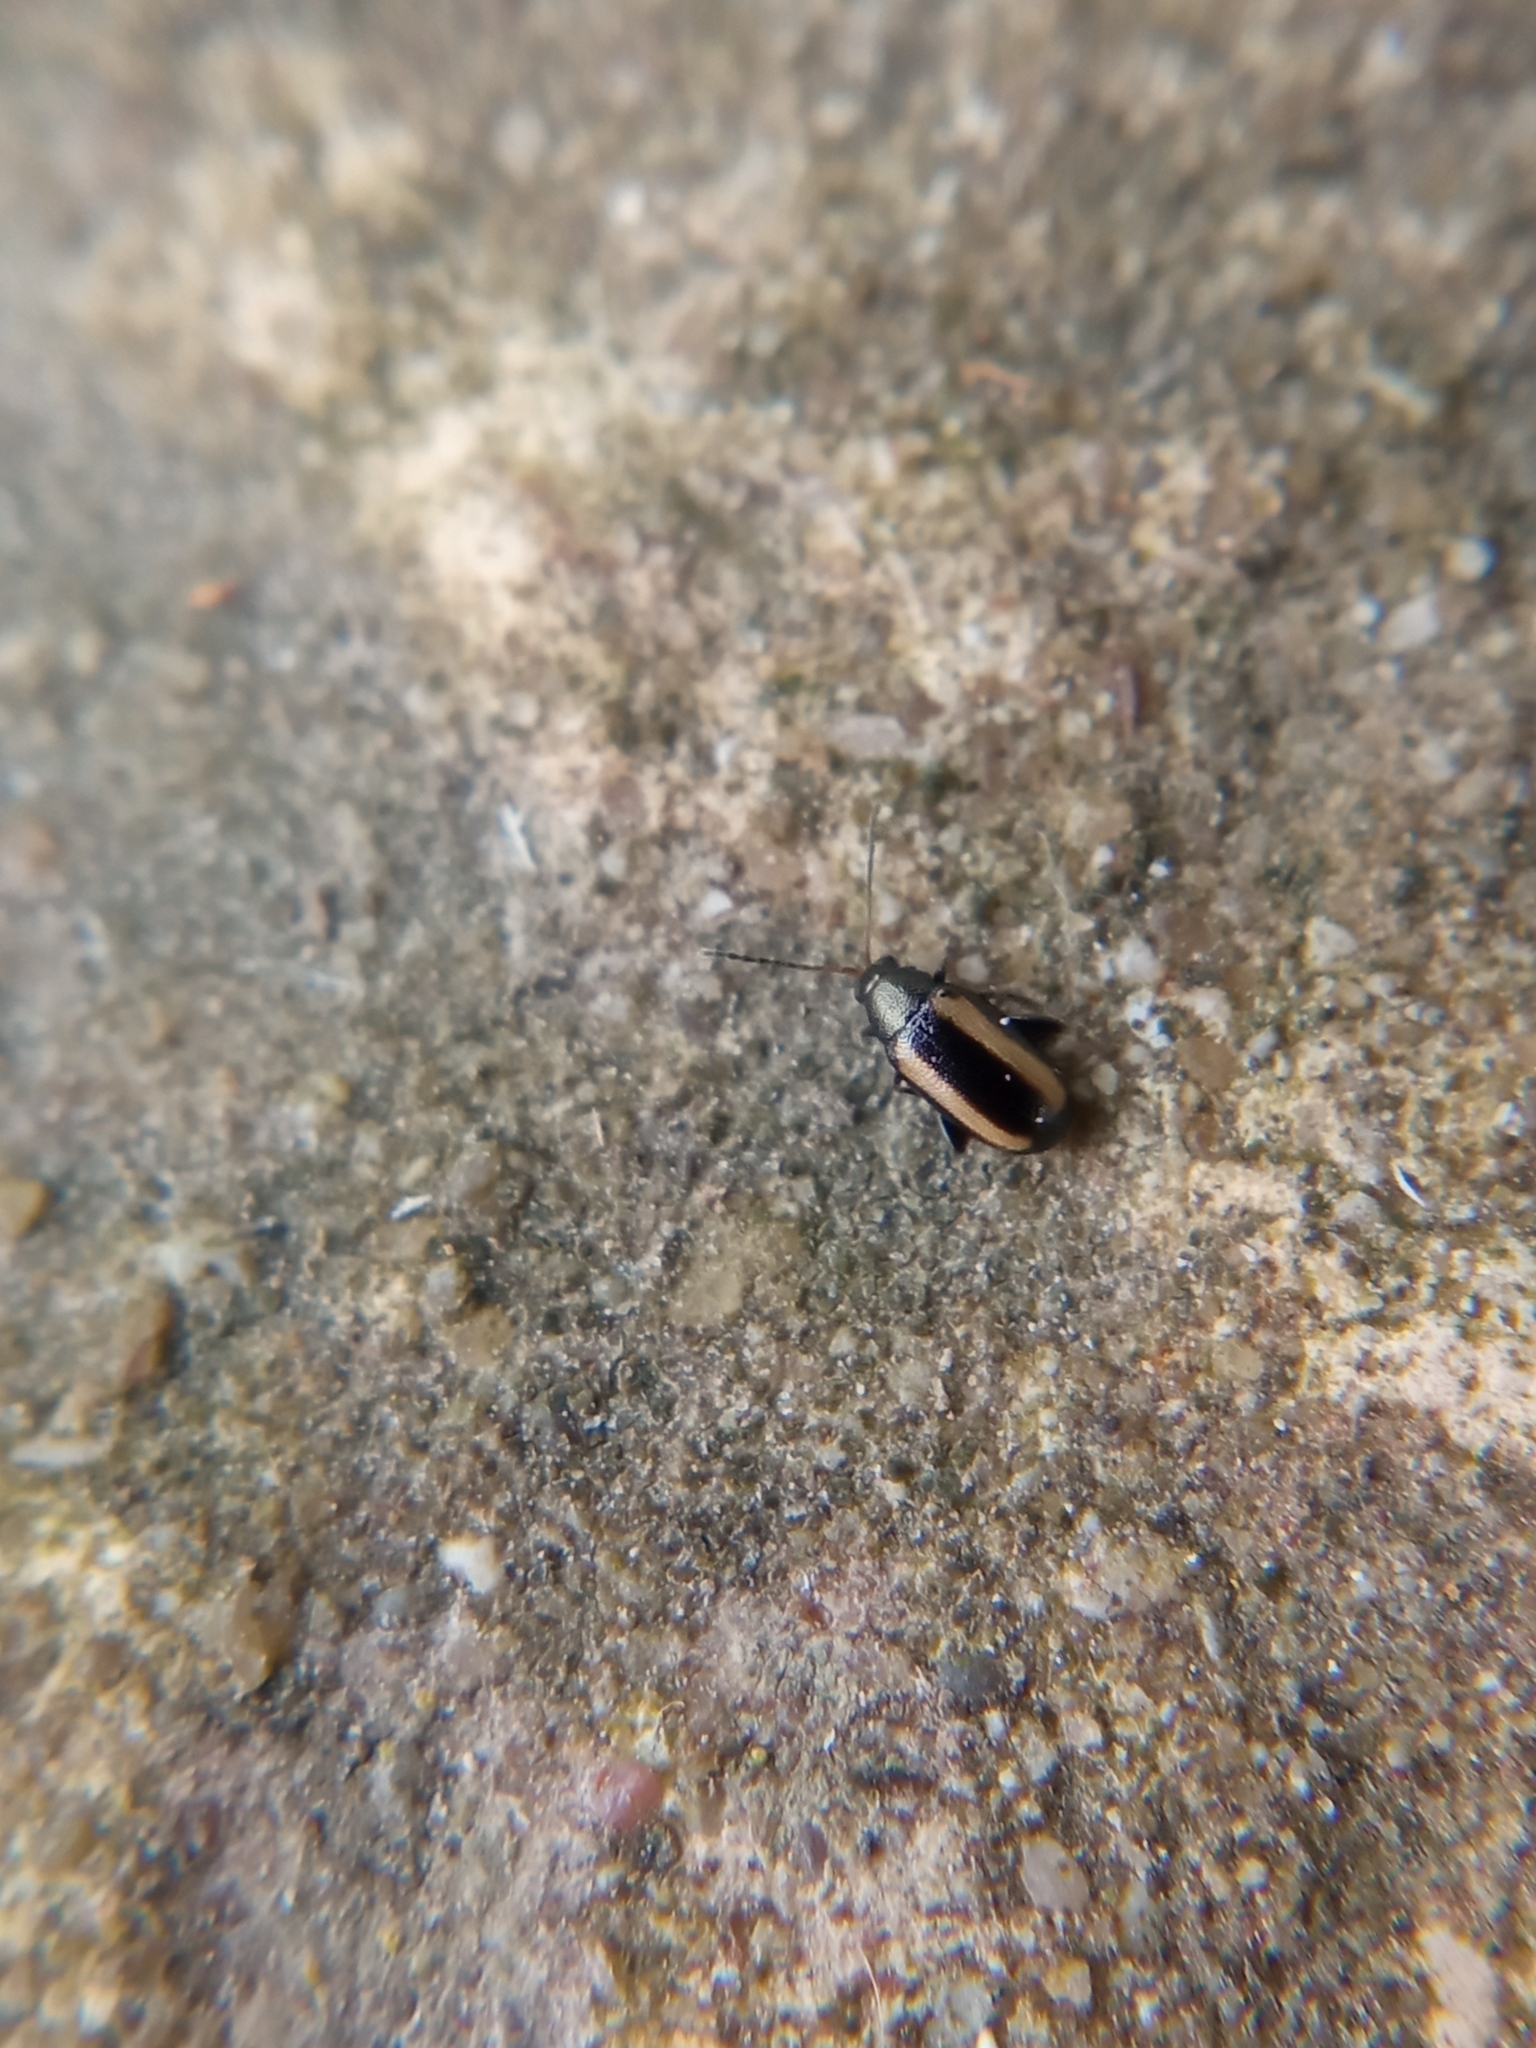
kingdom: Animalia
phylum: Arthropoda
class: Insecta
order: Coleoptera
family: Chrysomelidae
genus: Phyllotreta
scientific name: Phyllotreta vittula
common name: Barley flea beetle
